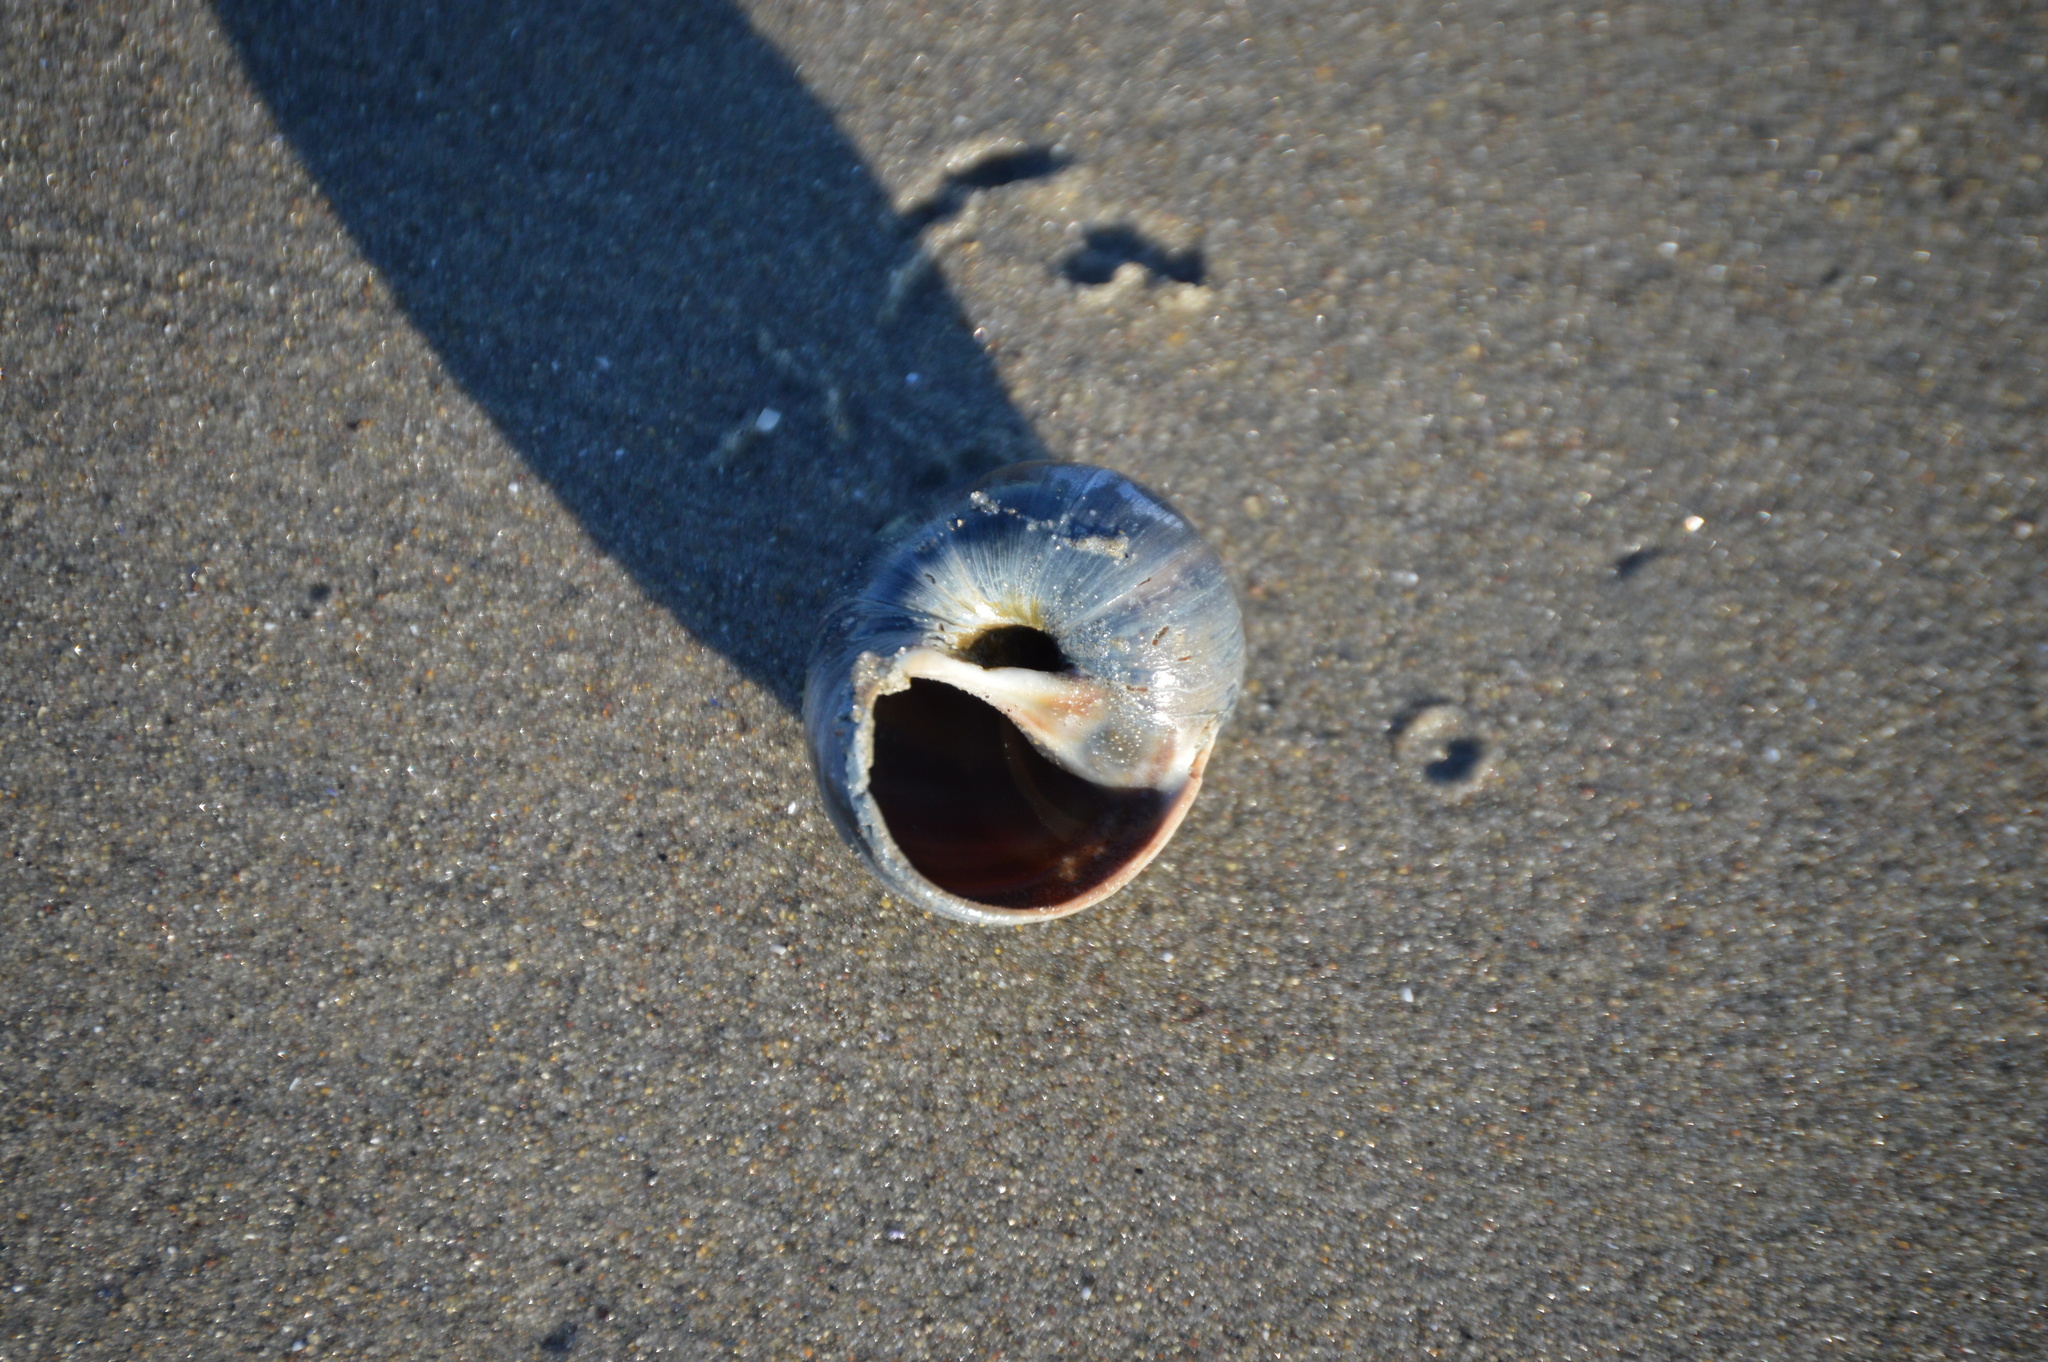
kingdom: Animalia
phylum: Mollusca
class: Gastropoda
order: Littorinimorpha
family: Naticidae
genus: Euspira
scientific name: Euspira heros
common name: Common northern moonsnail
